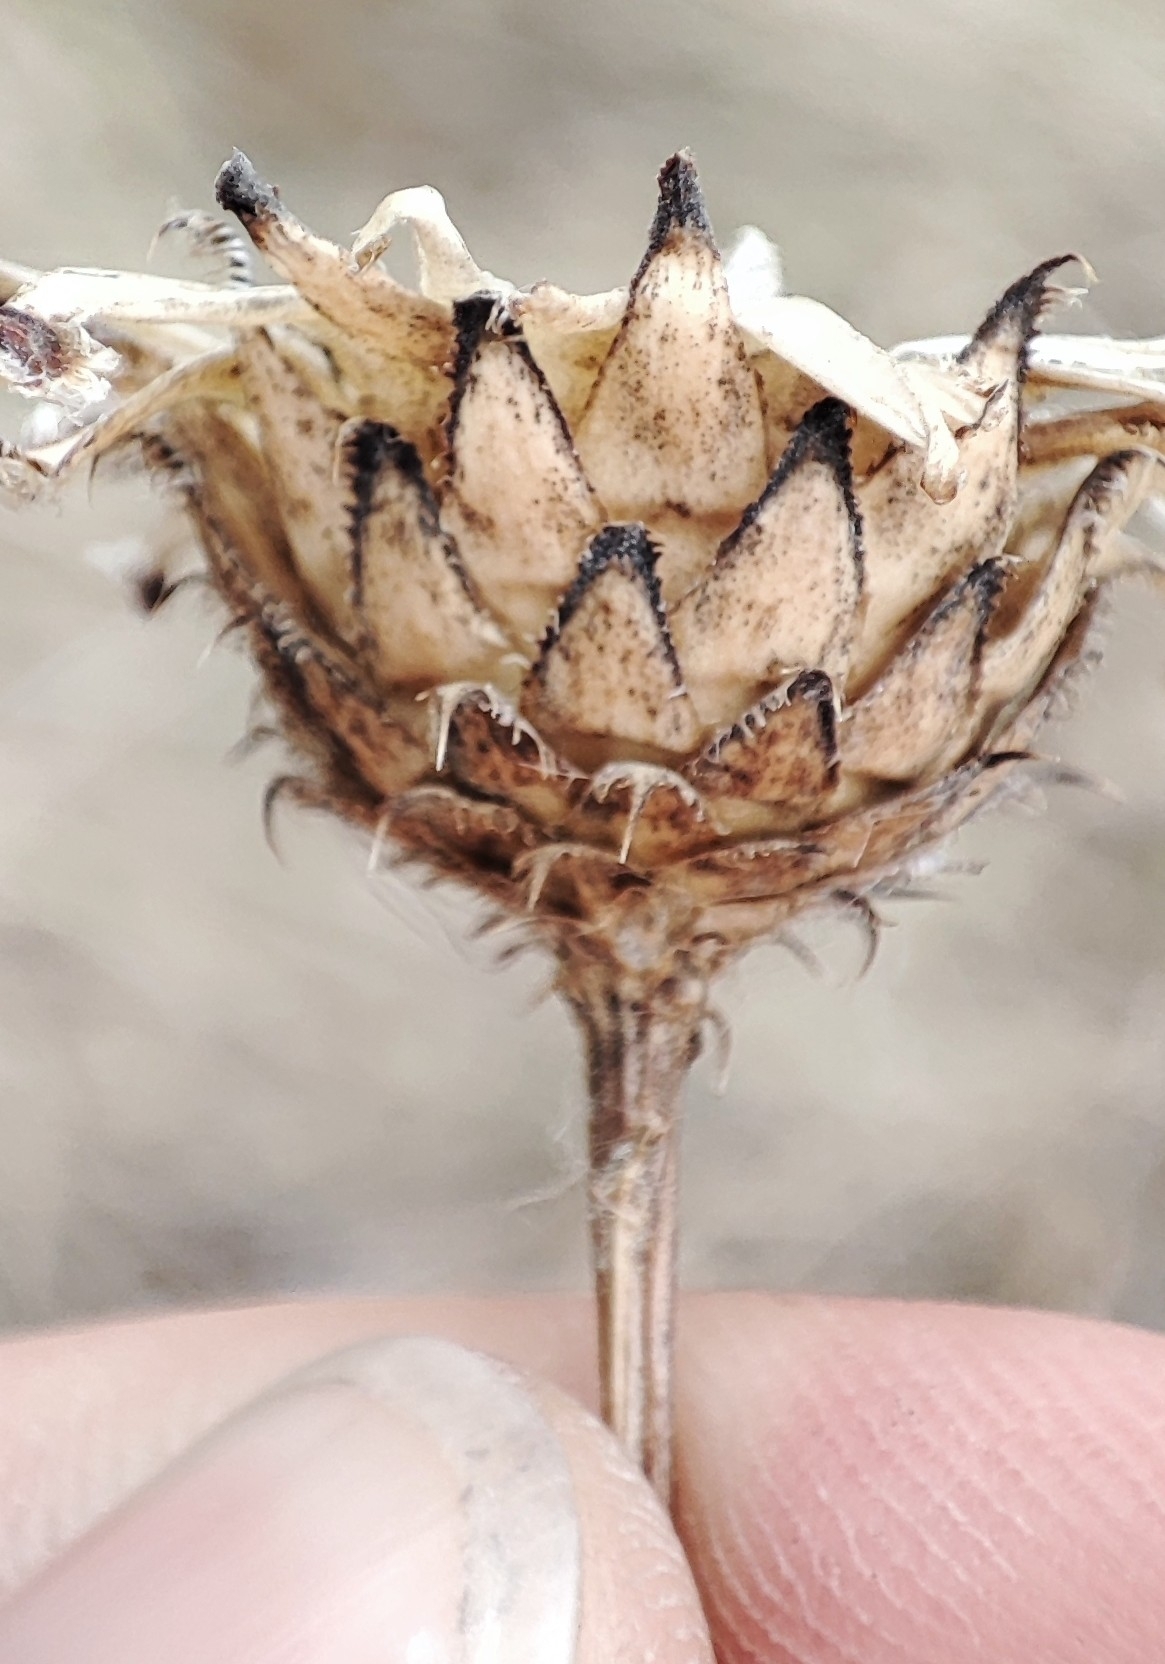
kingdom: Plantae
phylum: Tracheophyta
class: Magnoliopsida
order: Asterales
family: Asteraceae
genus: Centaurea
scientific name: Centaurea scabiosa
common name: Greater knapweed
